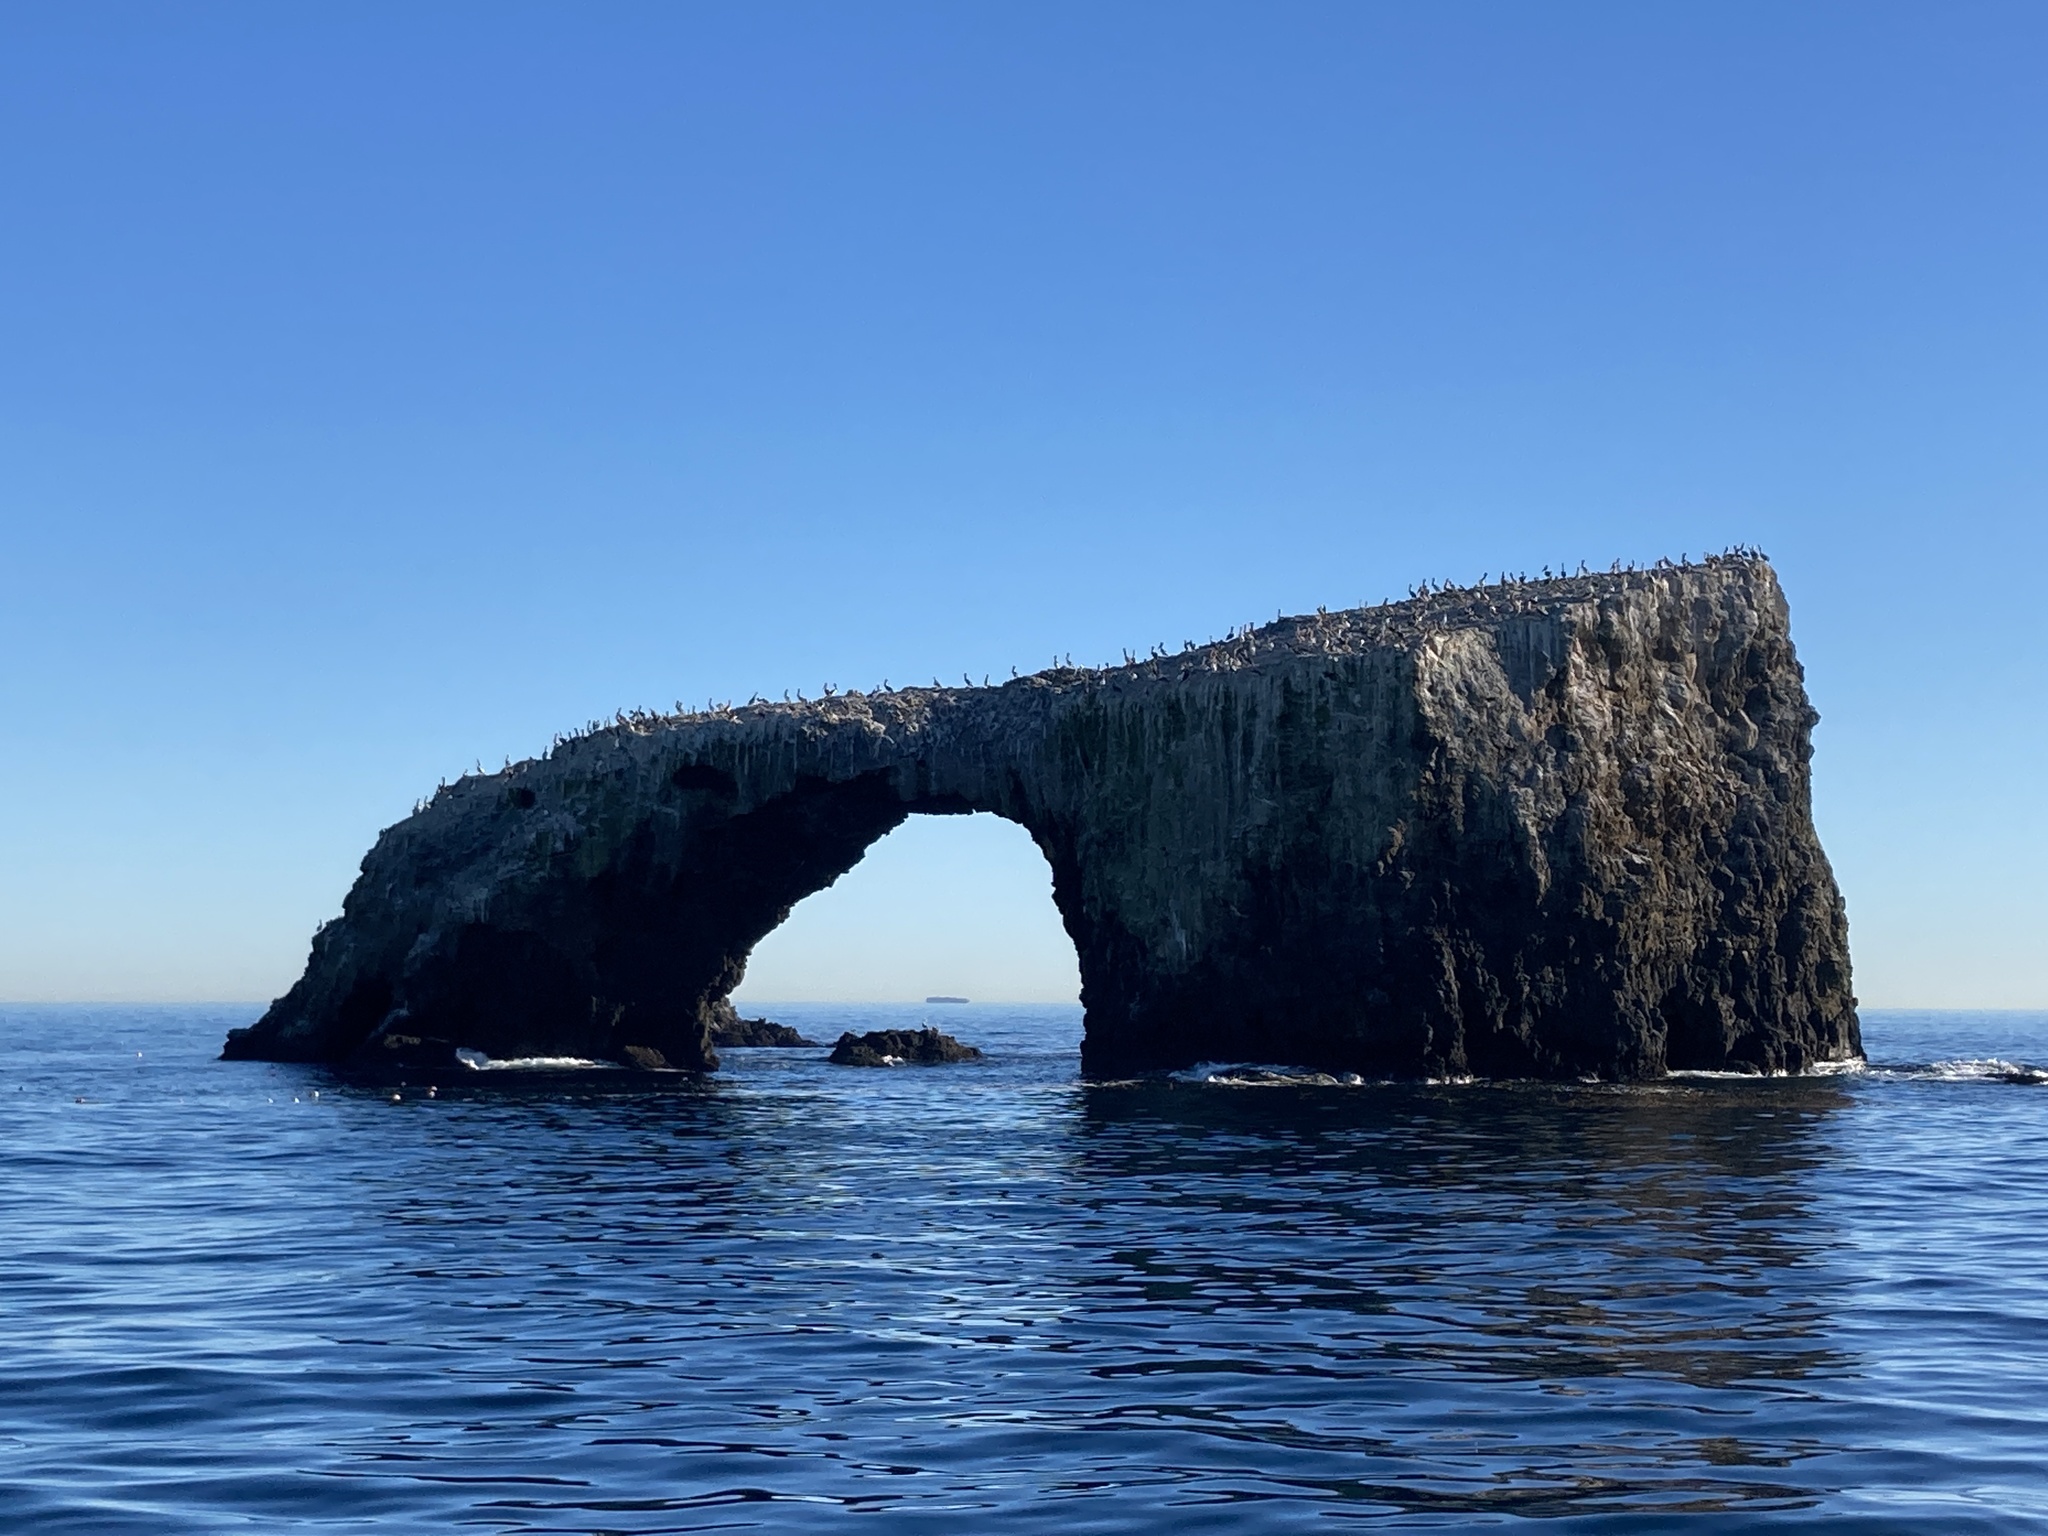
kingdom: Animalia
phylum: Chordata
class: Aves
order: Pelecaniformes
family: Pelecanidae
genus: Pelecanus
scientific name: Pelecanus occidentalis
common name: Brown pelican
